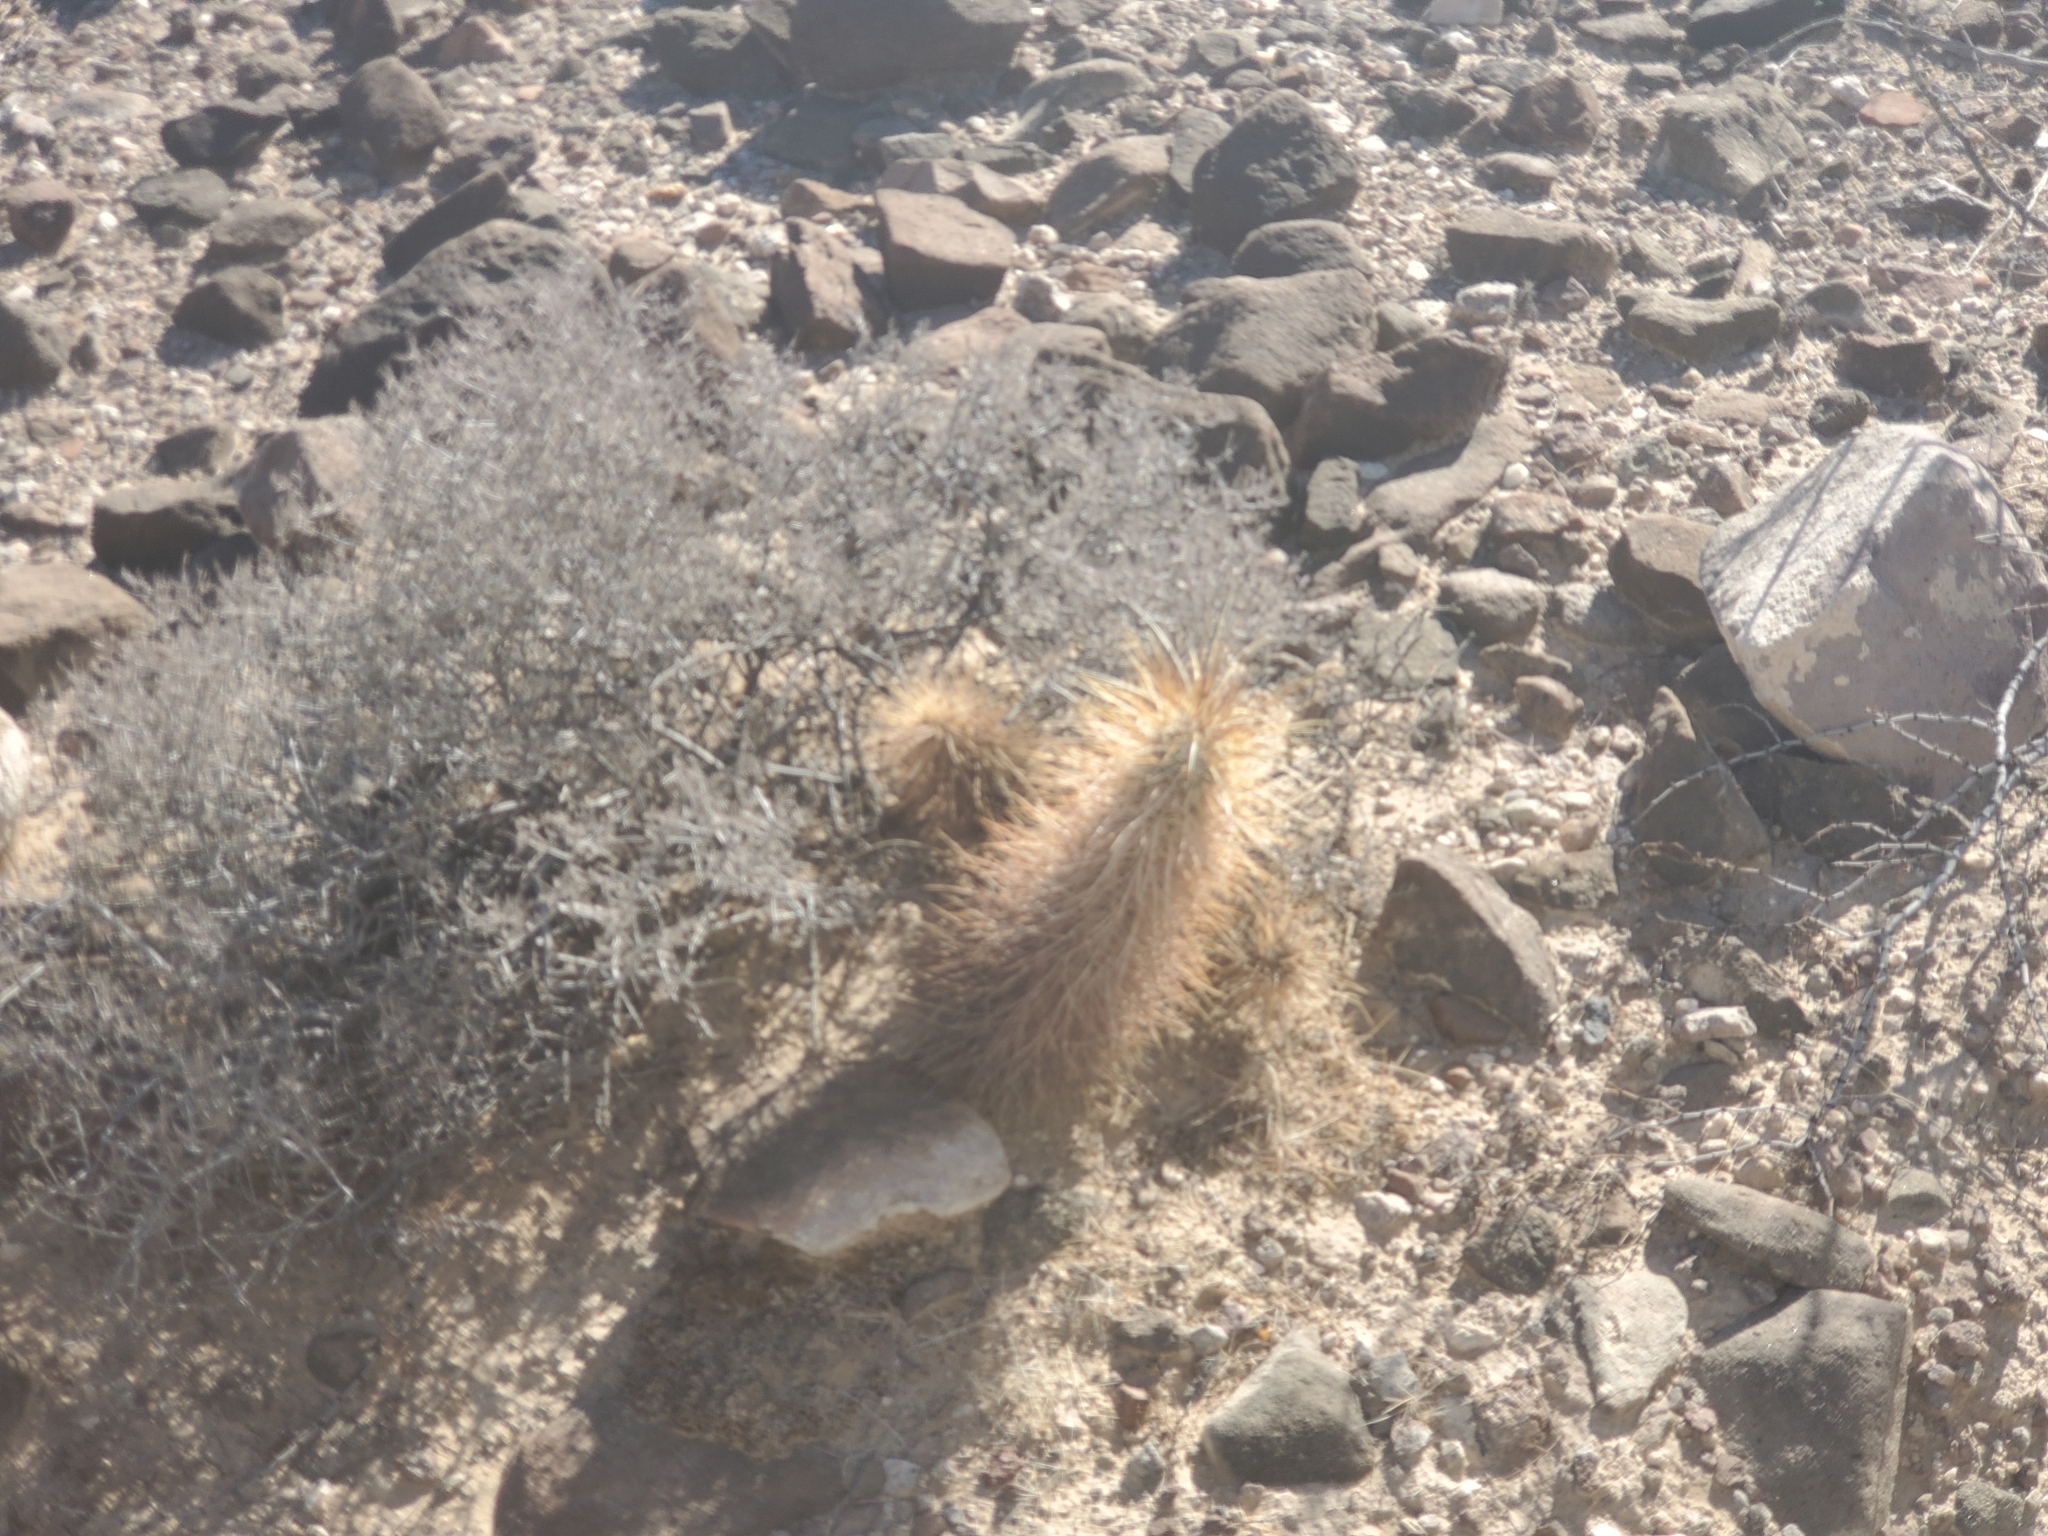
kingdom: Plantae
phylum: Tracheophyta
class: Magnoliopsida
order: Caryophyllales
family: Cactaceae
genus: Echinocereus
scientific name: Echinocereus engelmannii
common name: Engelmann's hedgehog cactus
